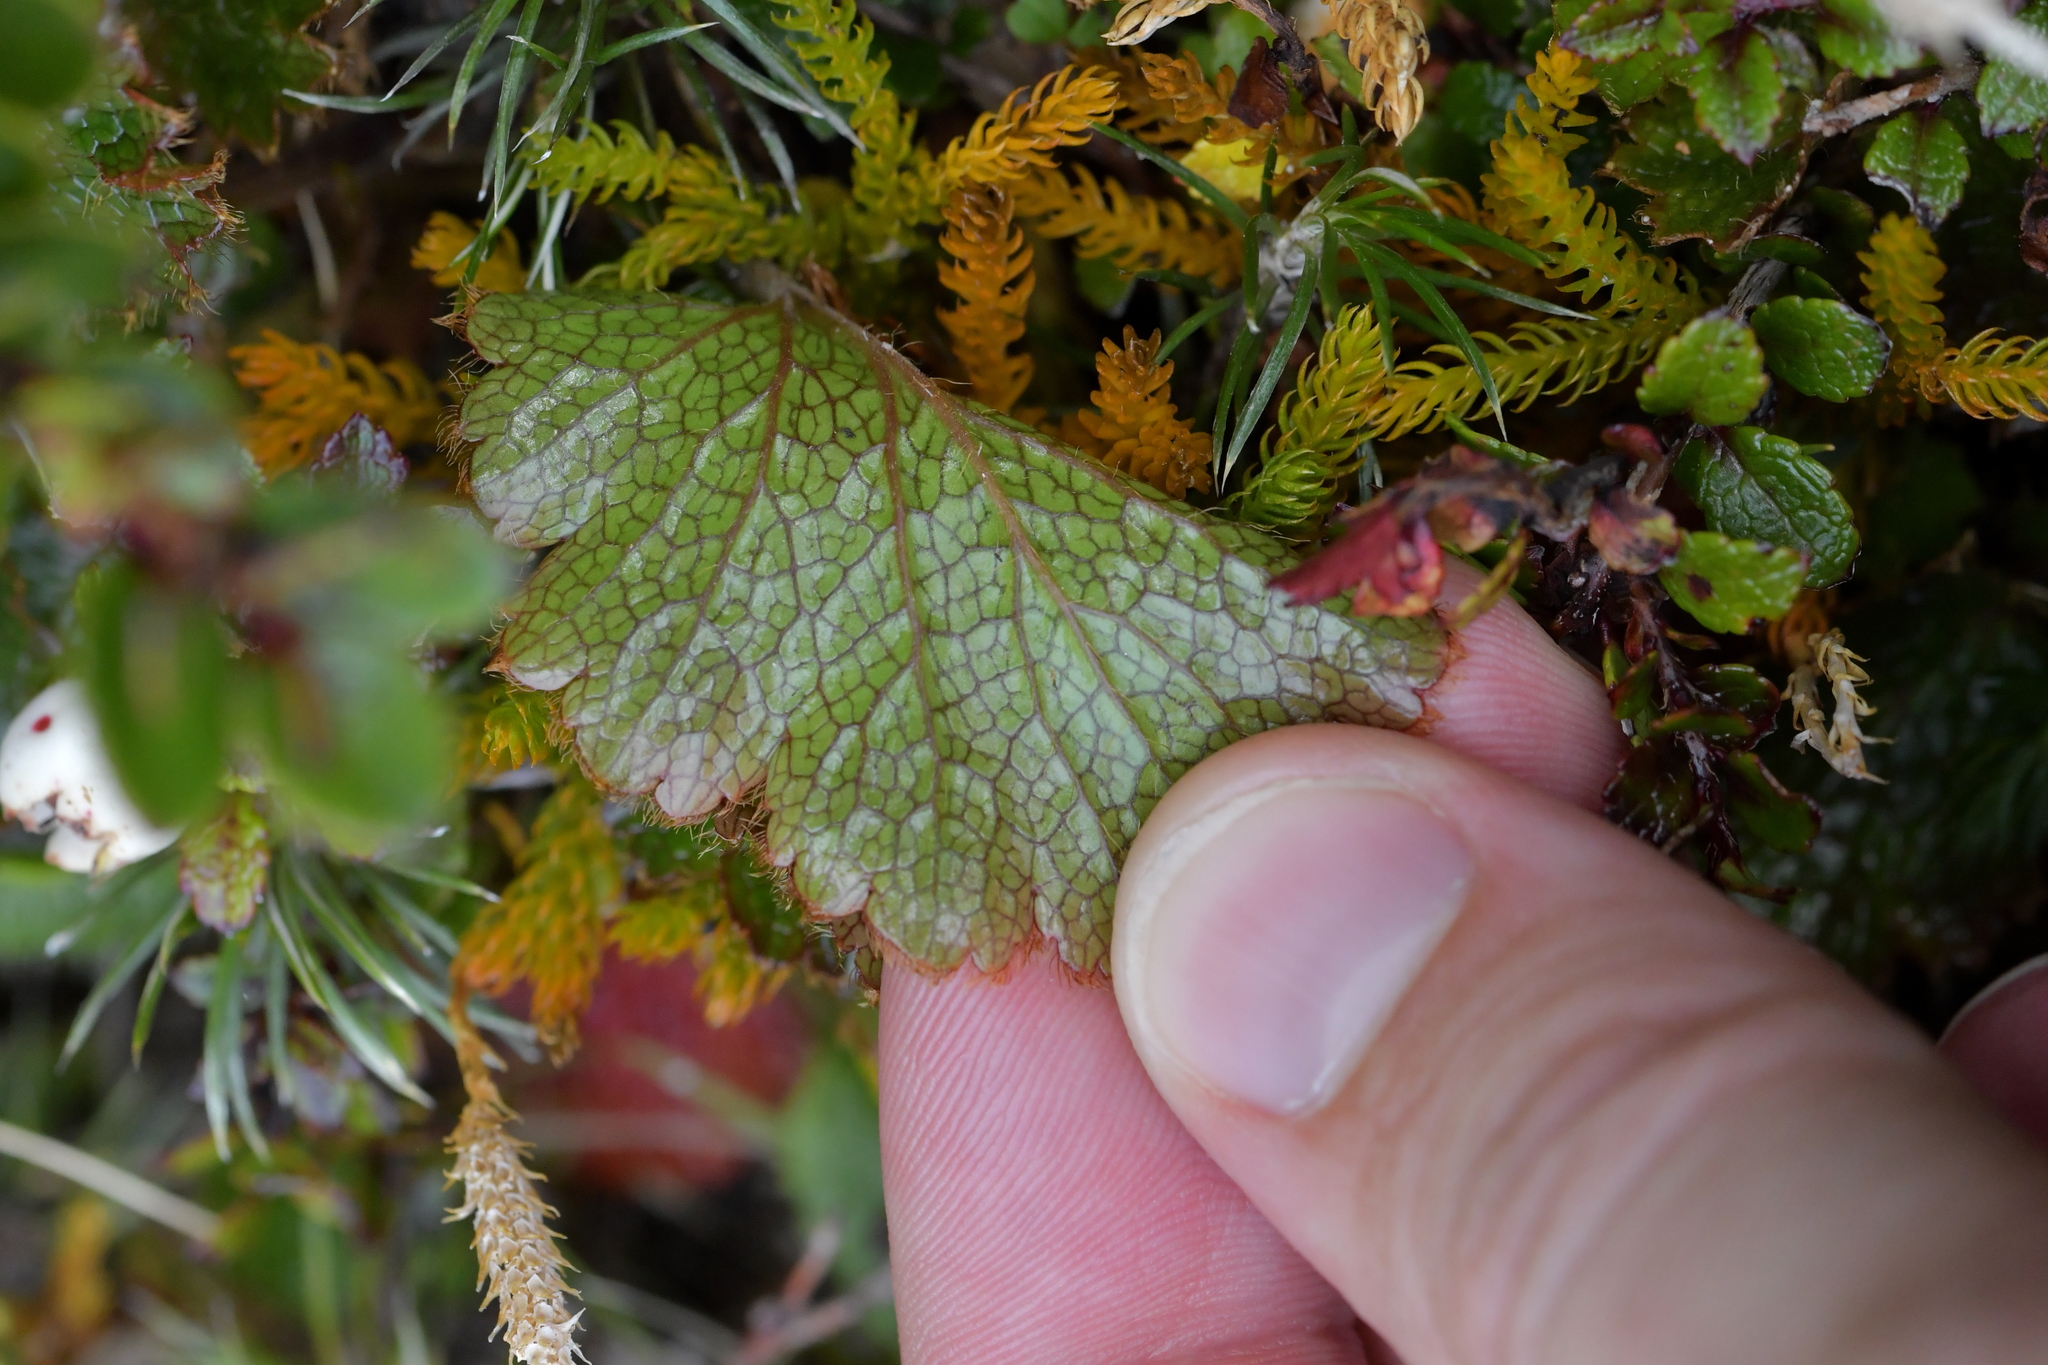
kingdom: Plantae
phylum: Tracheophyta
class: Magnoliopsida
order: Rosales
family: Rosaceae
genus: Geum
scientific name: Geum uniflorum
